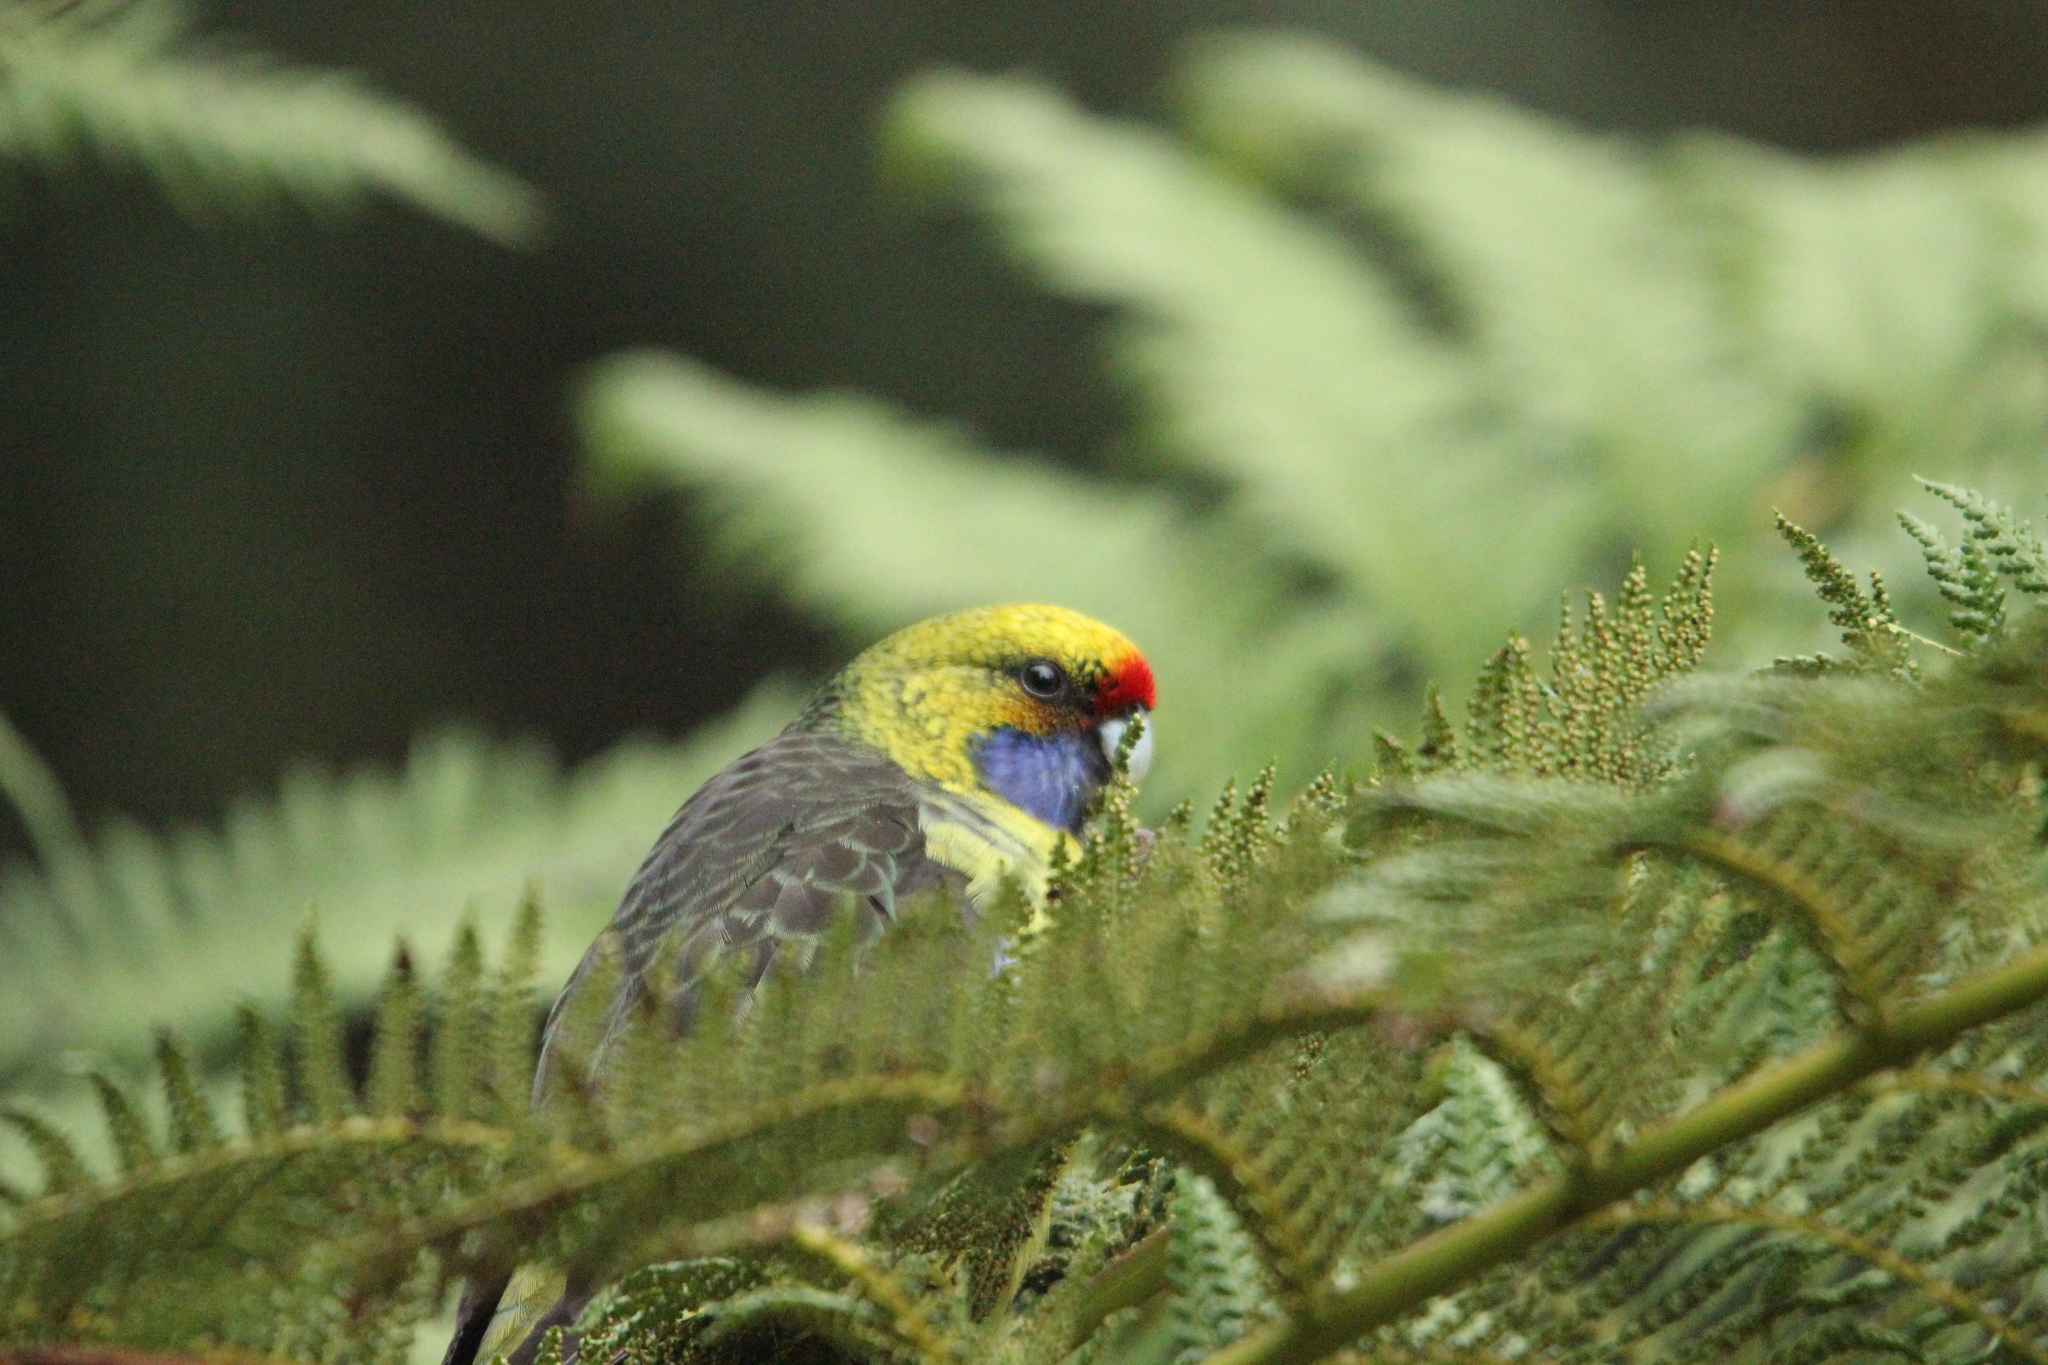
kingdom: Animalia
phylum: Chordata
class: Aves
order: Psittaciformes
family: Psittacidae
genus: Platycercus
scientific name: Platycercus caledonicus
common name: Green rosella
